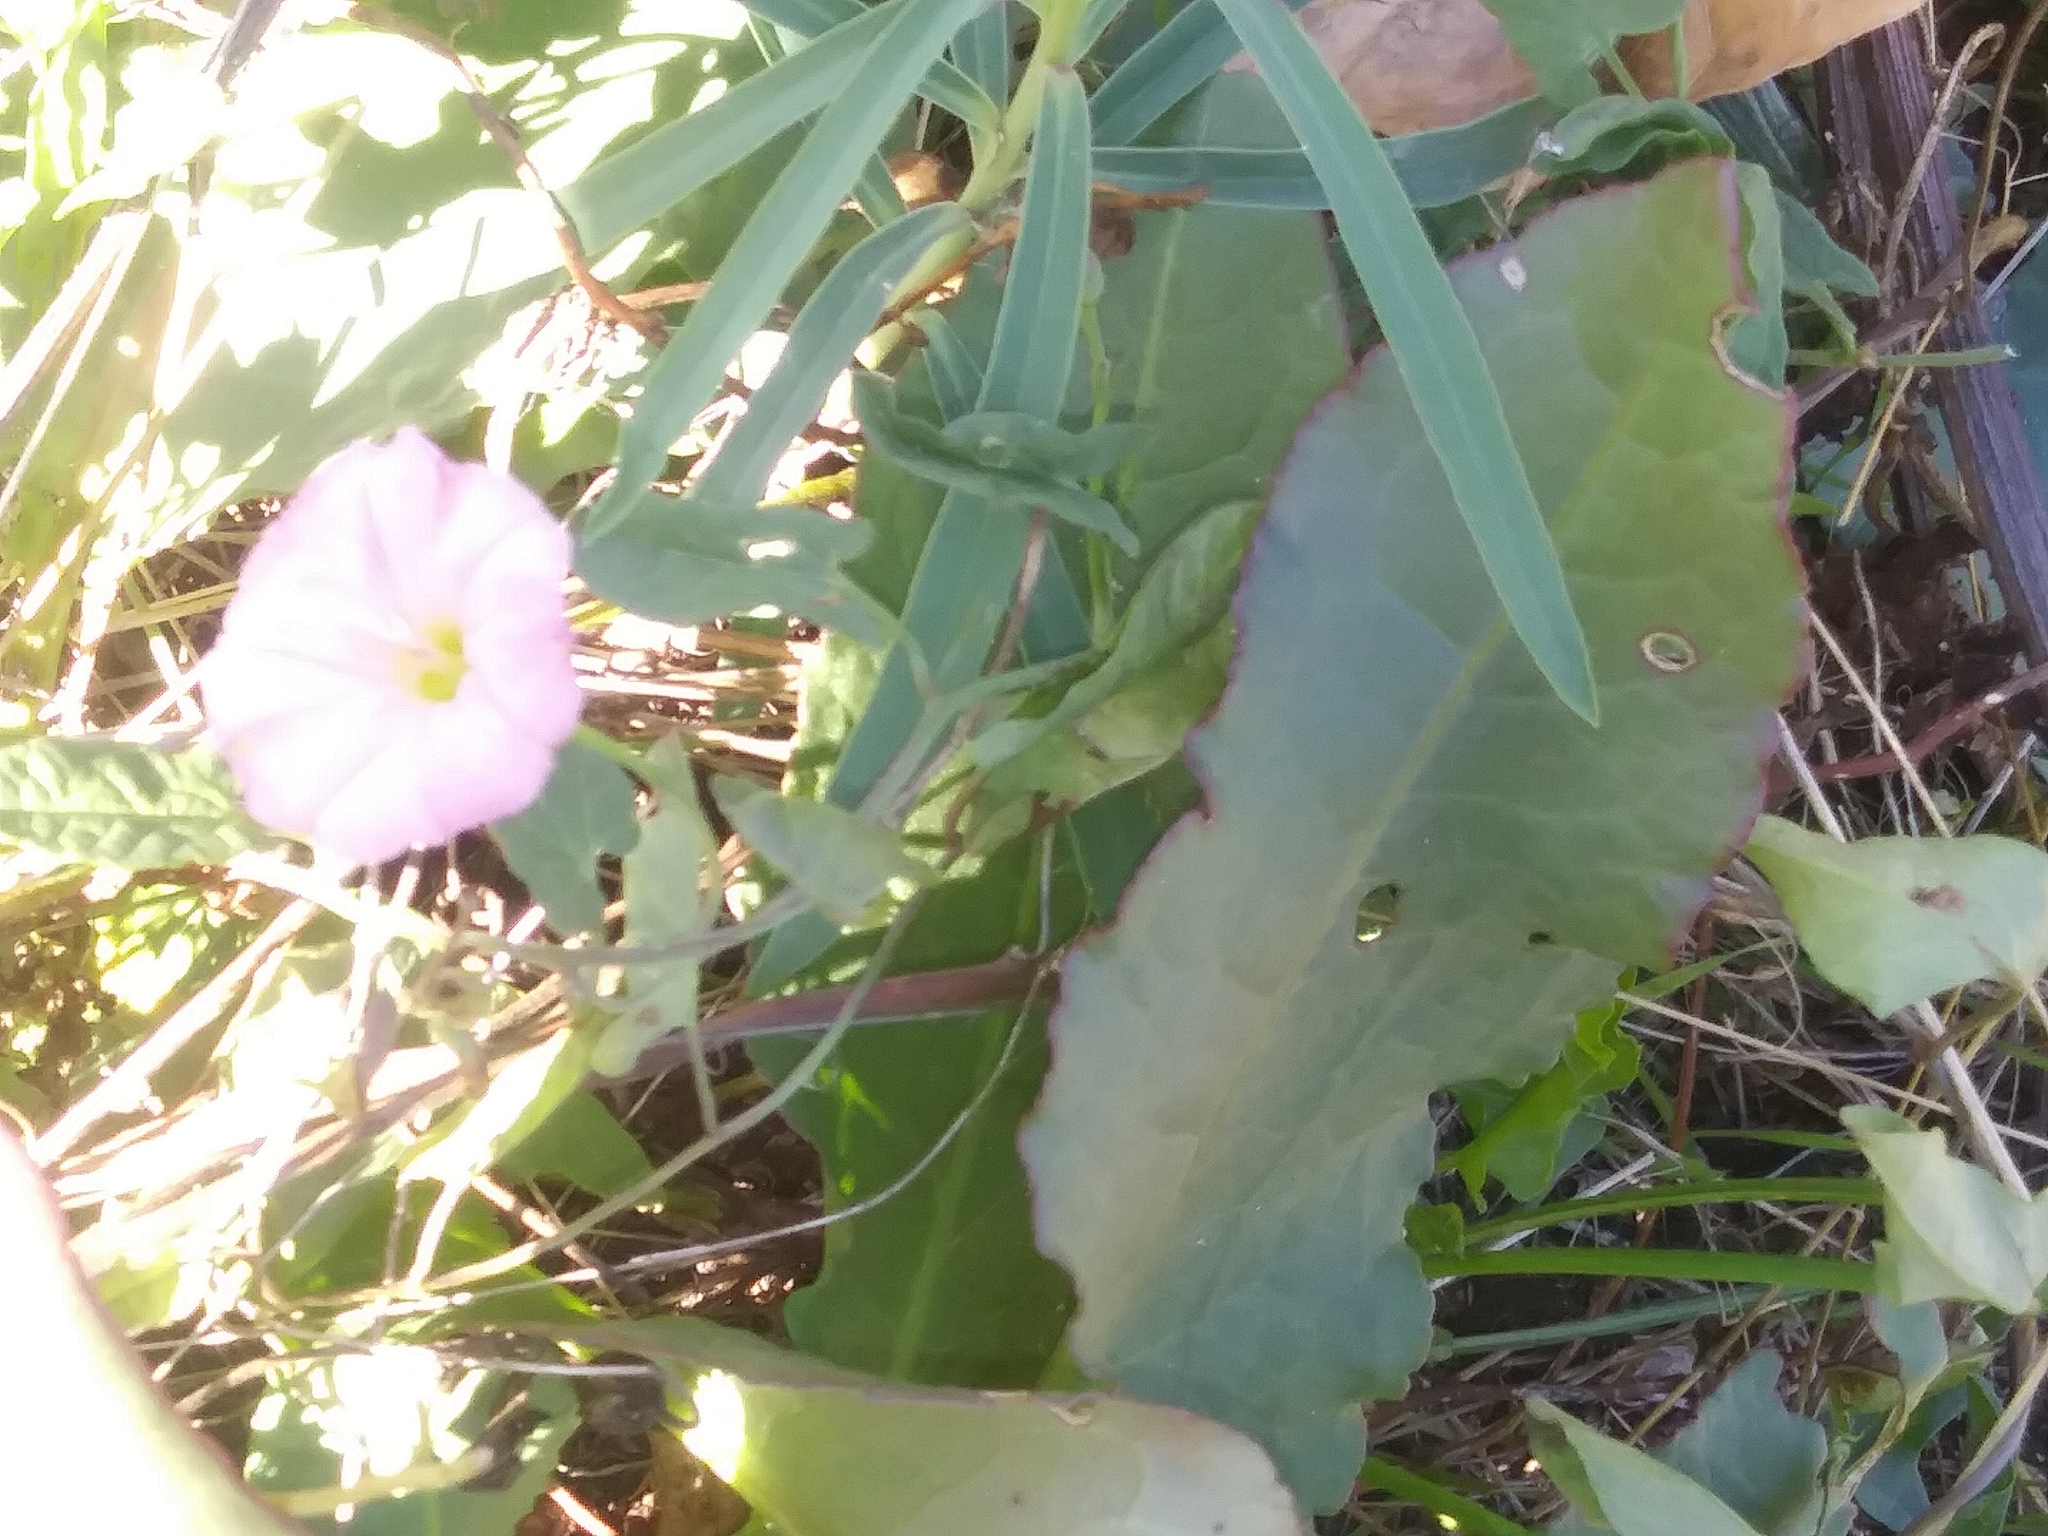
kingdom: Plantae
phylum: Tracheophyta
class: Magnoliopsida
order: Solanales
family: Convolvulaceae
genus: Convolvulus
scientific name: Convolvulus arvensis
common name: Field bindweed
